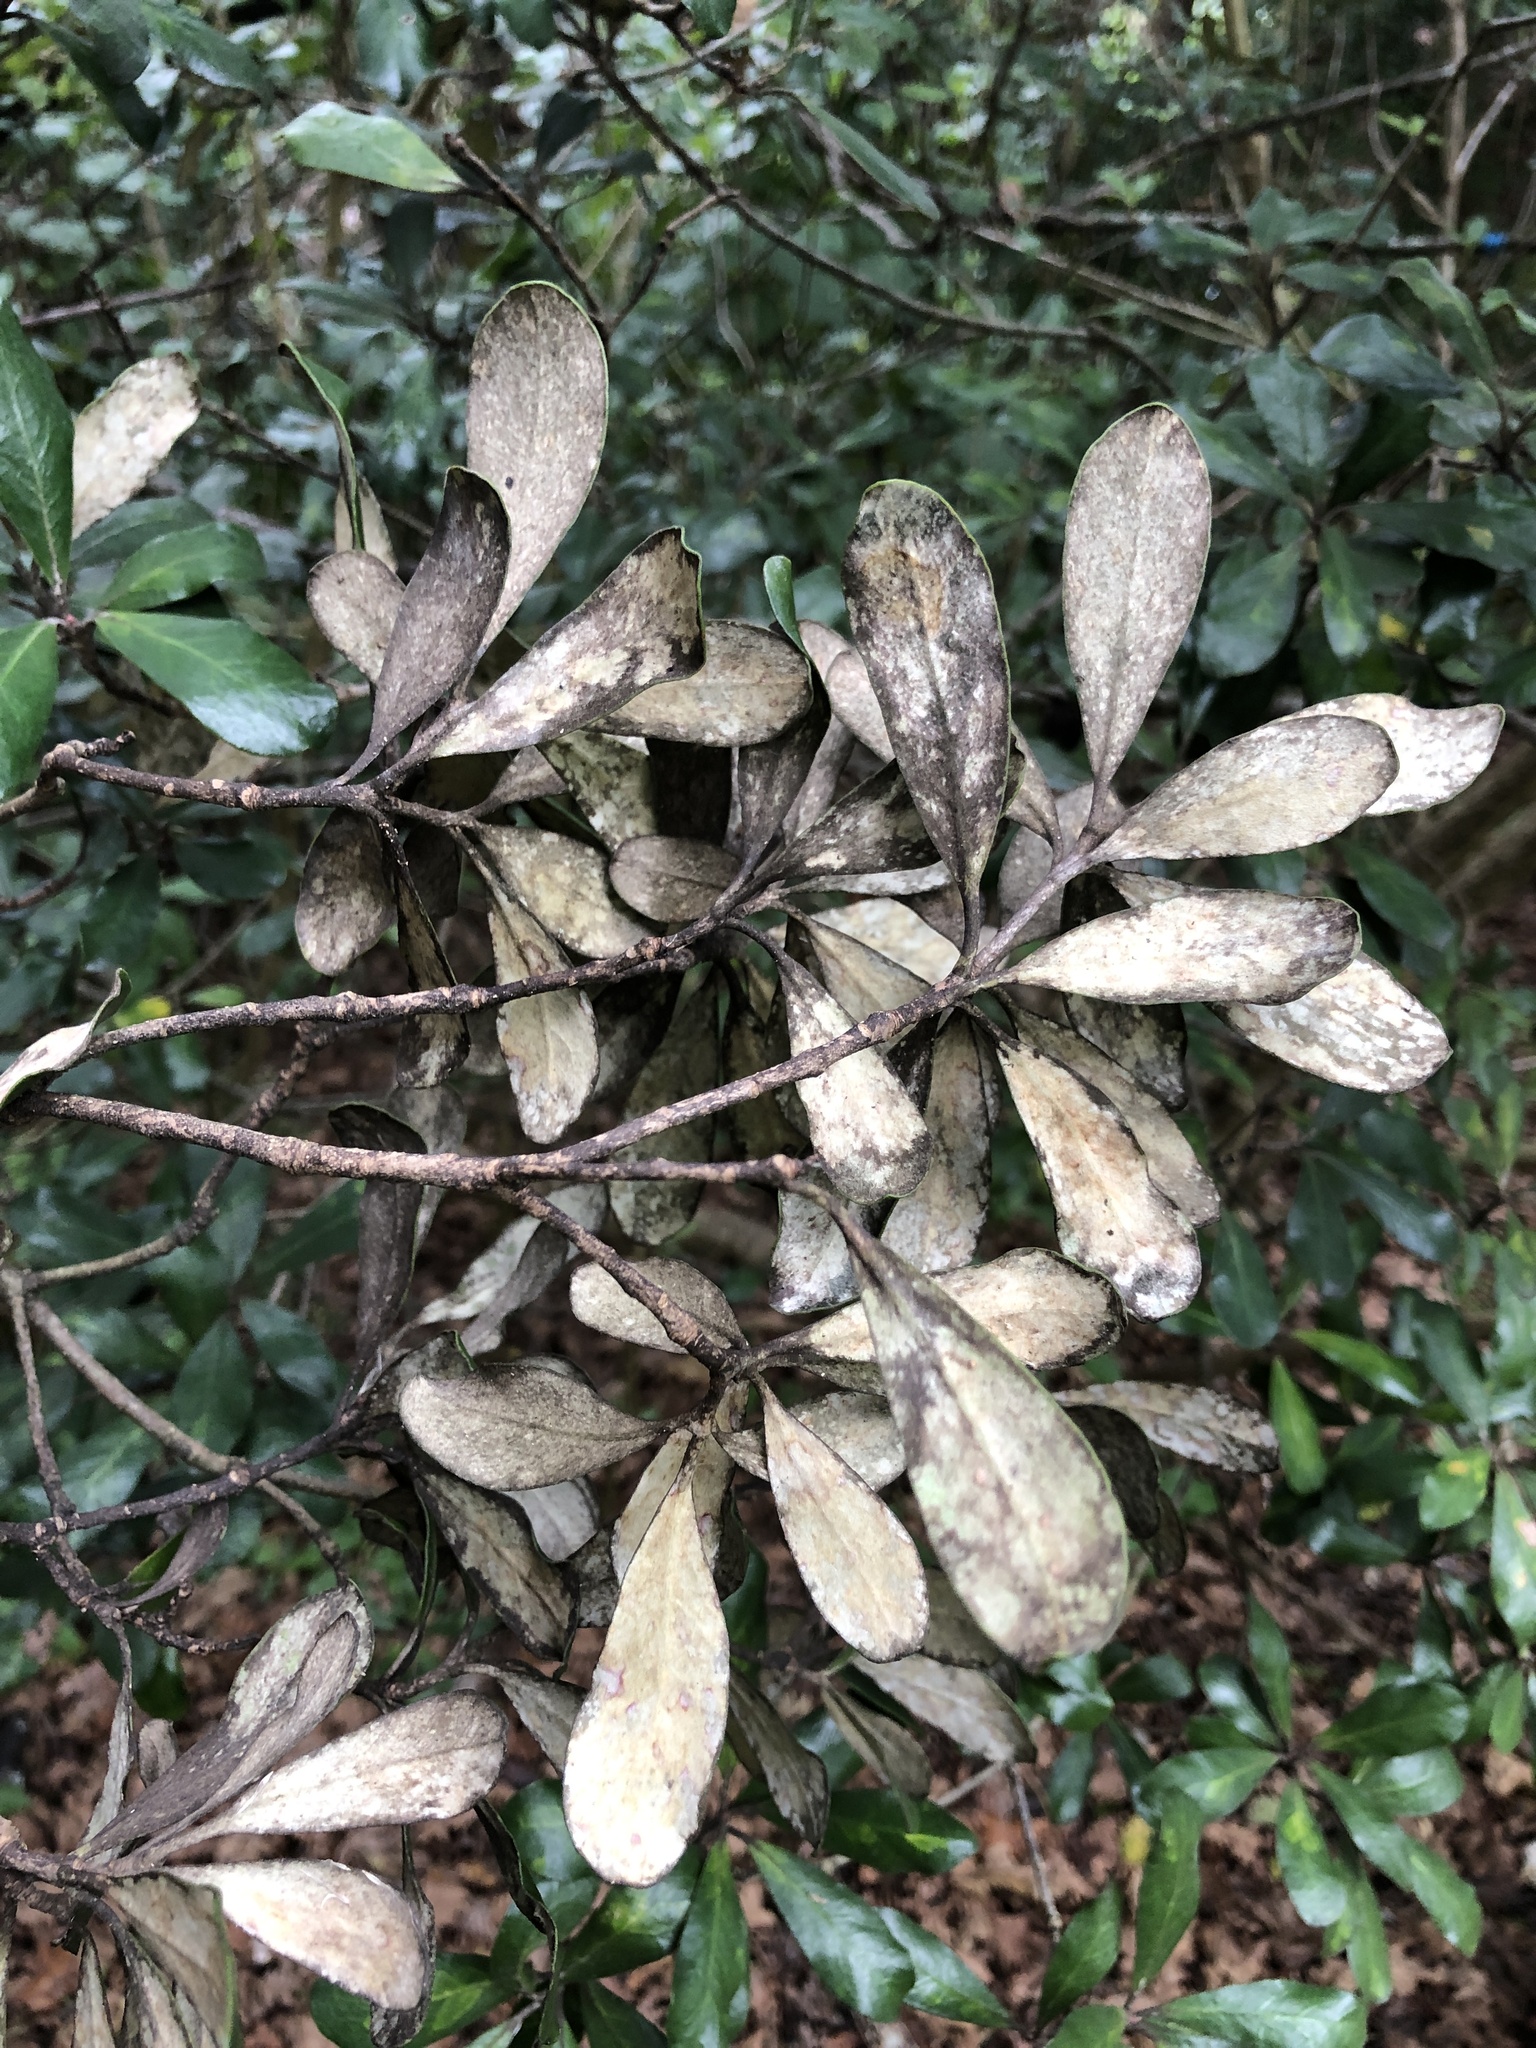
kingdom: Plantae
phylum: Tracheophyta
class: Magnoliopsida
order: Apiales
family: Pittosporaceae
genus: Pittosporum
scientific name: Pittosporum crassifolium
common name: Karo
